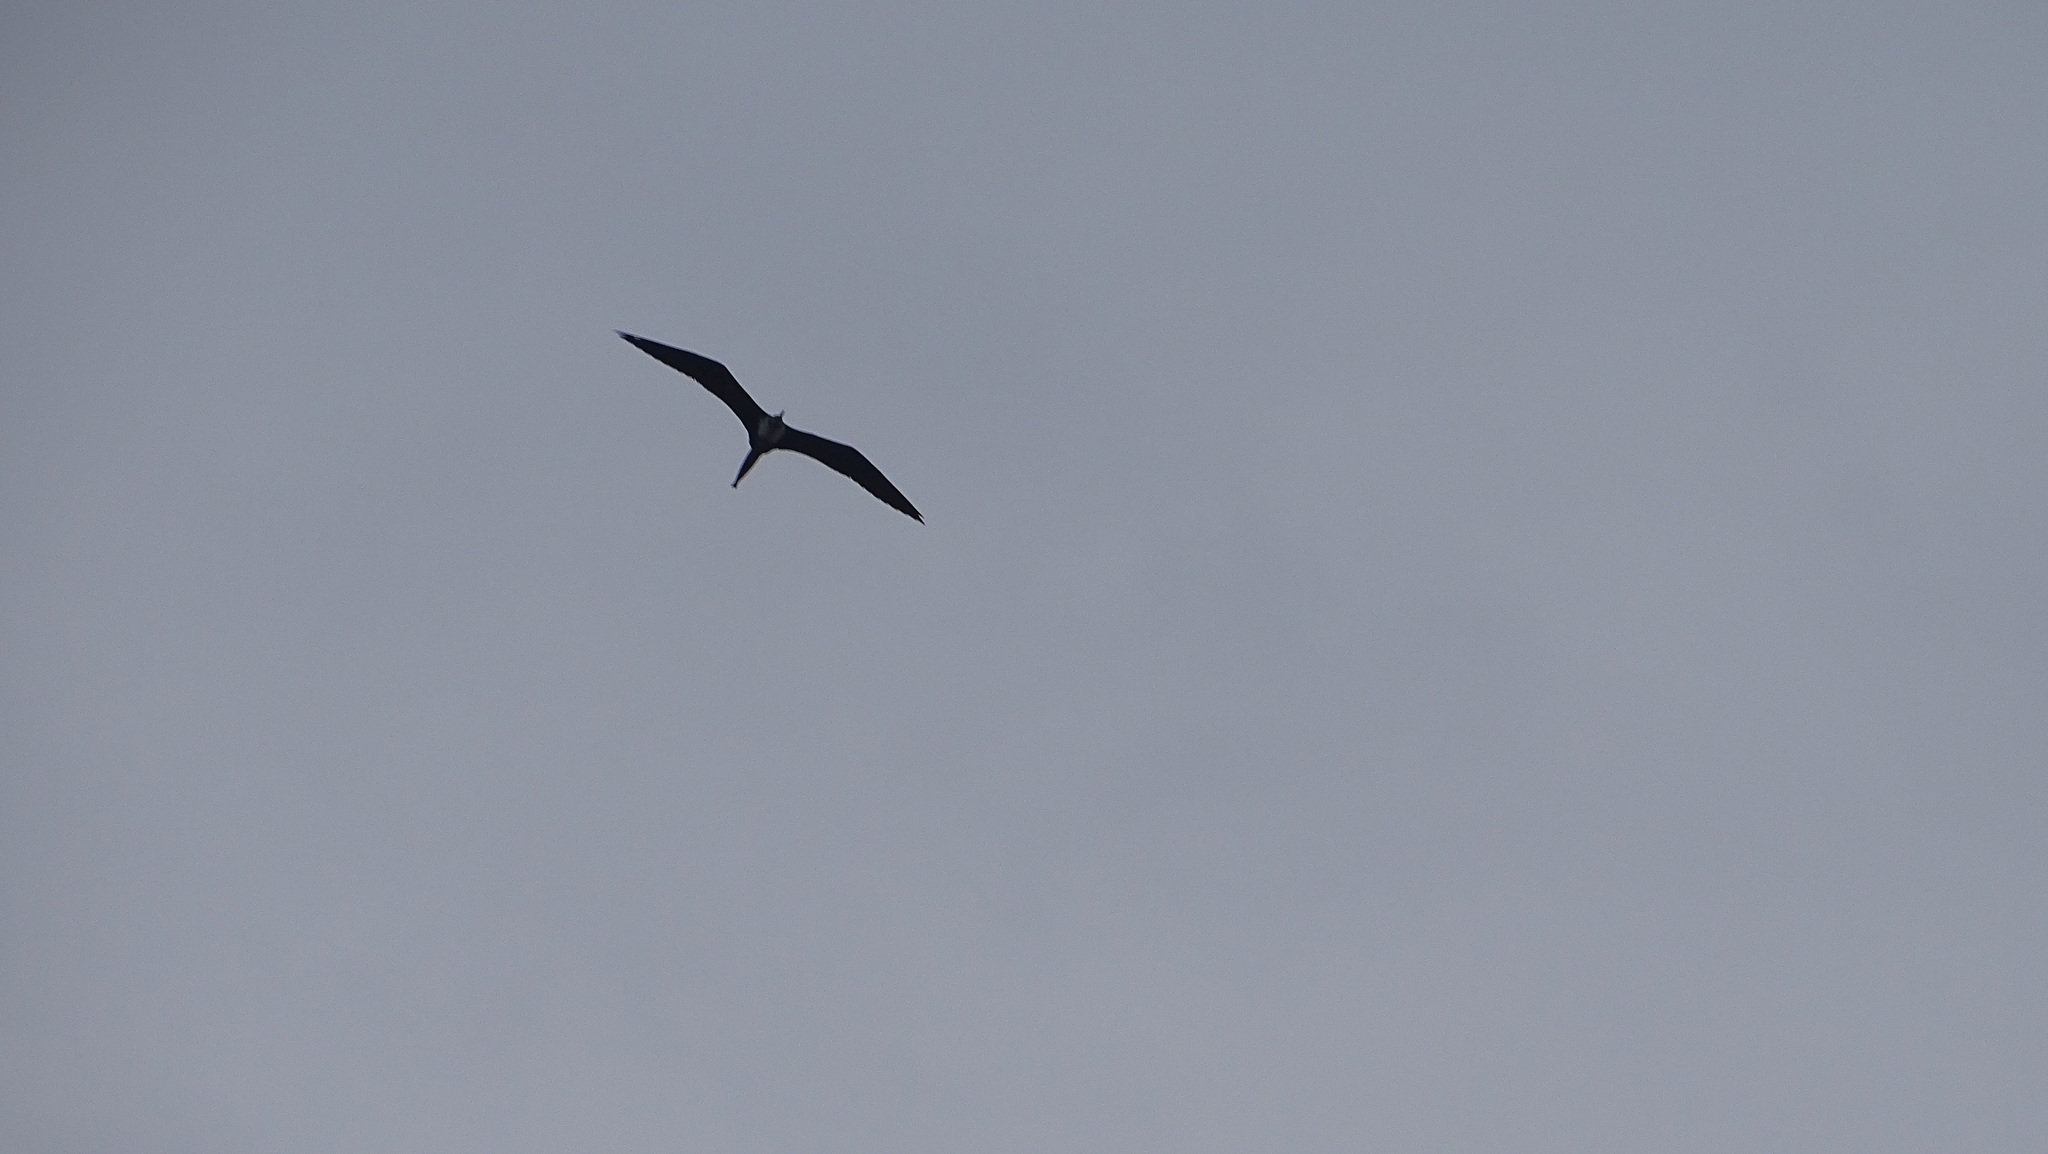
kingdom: Animalia
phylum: Chordata
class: Aves
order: Suliformes
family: Fregatidae
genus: Fregata
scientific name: Fregata magnificens
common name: Magnificent frigatebird
